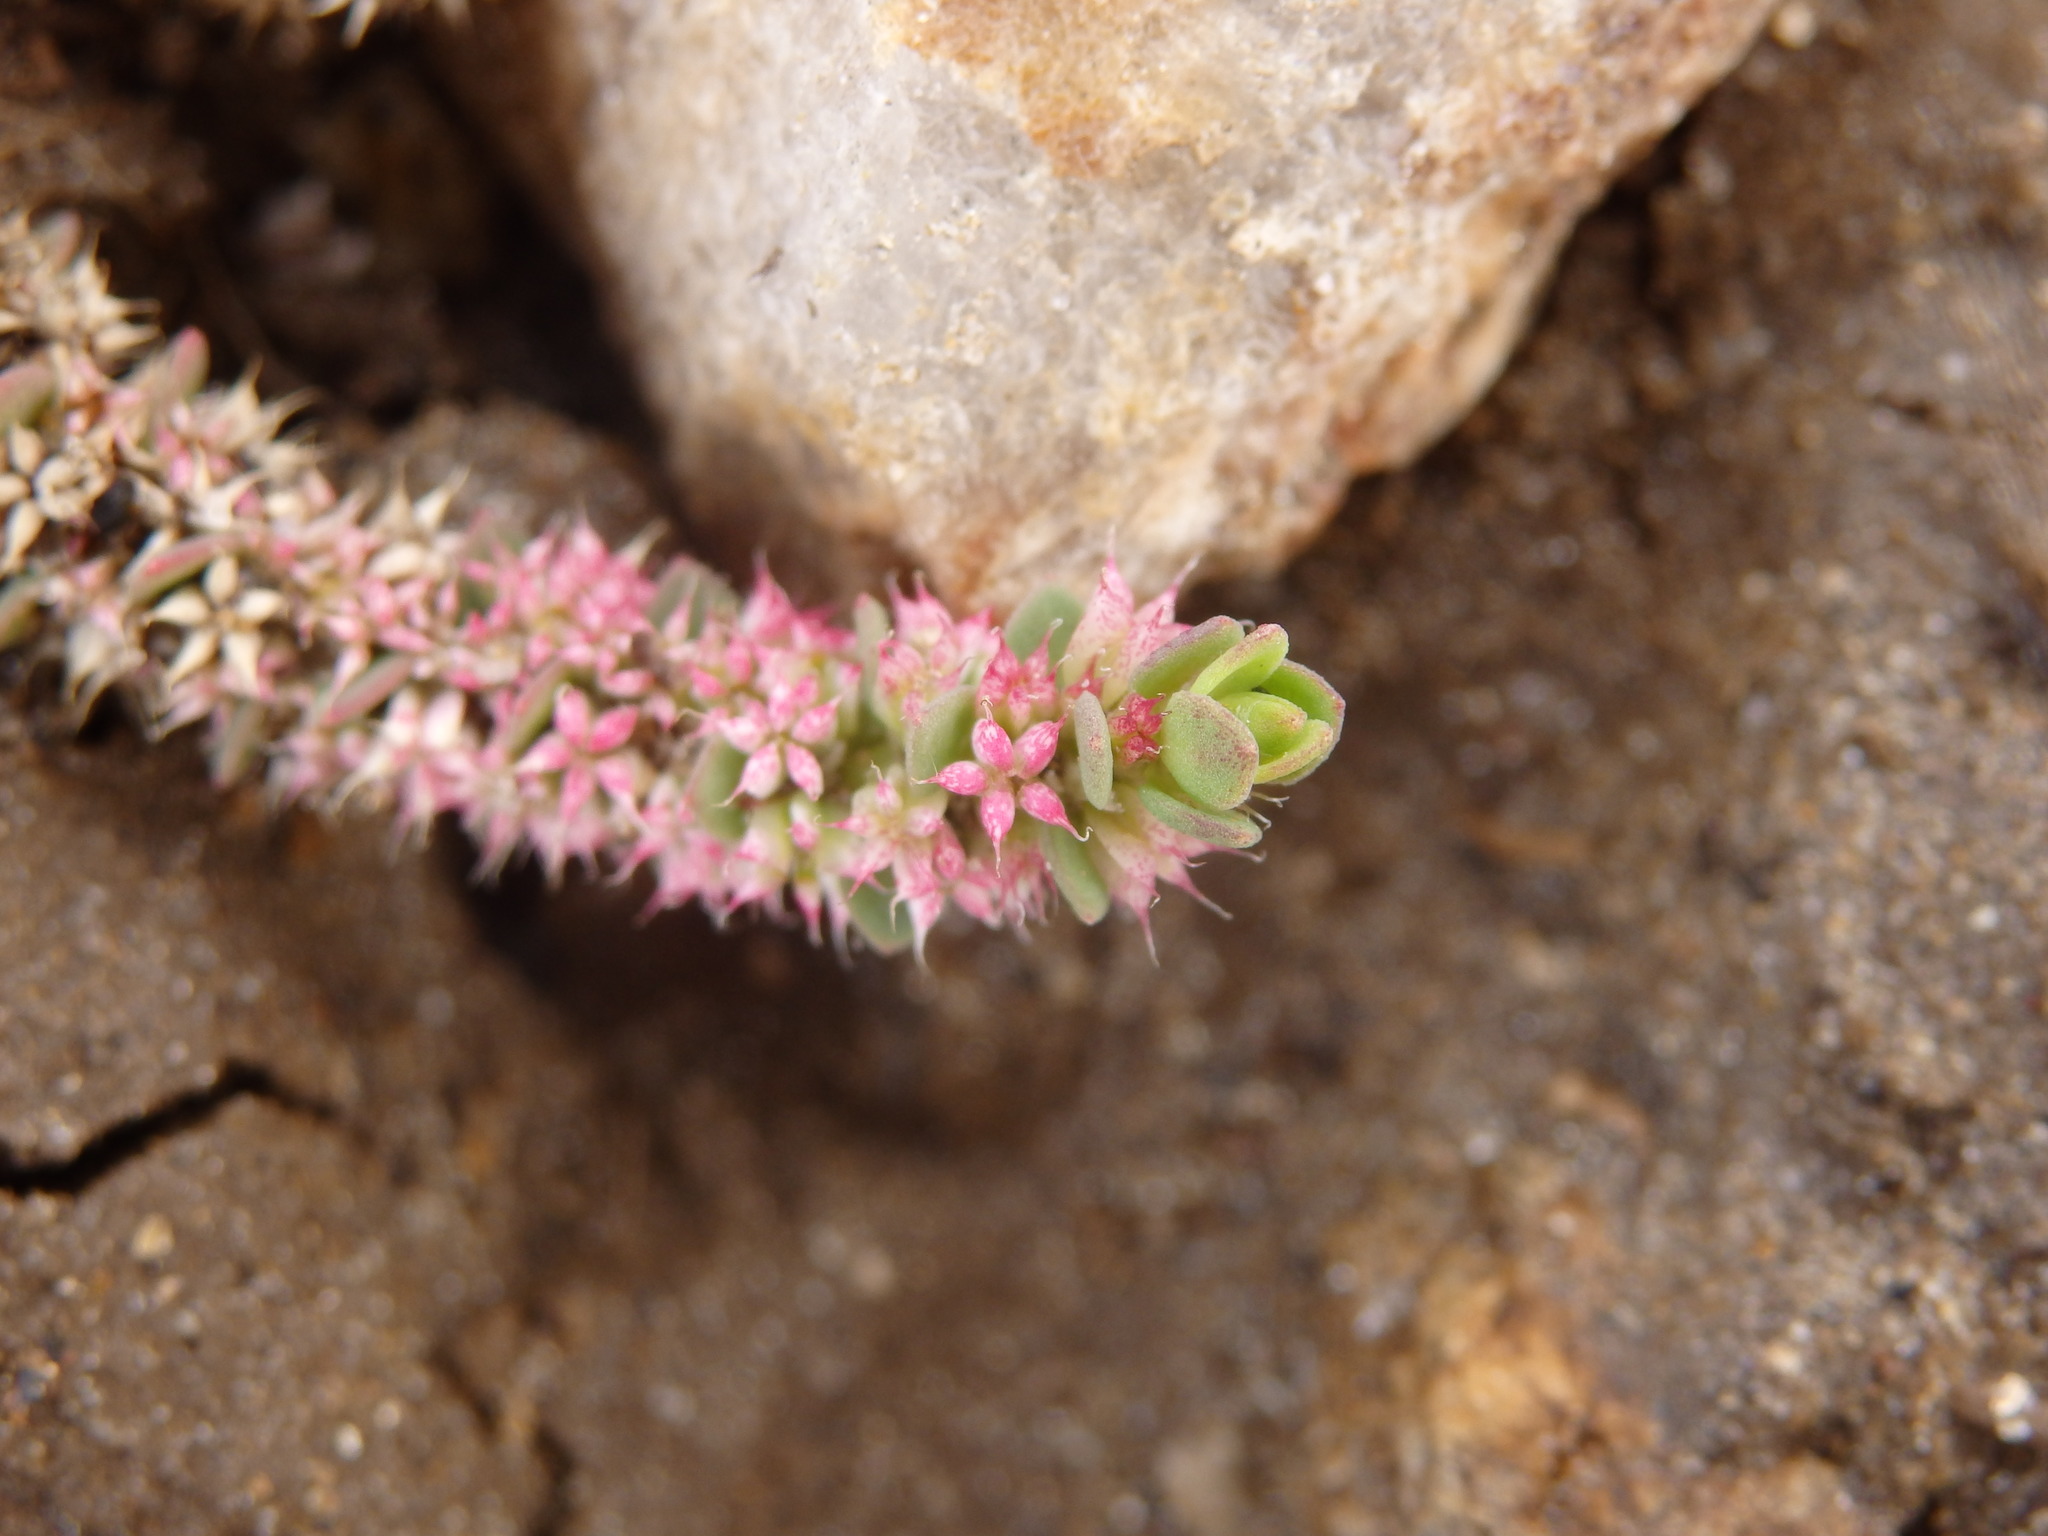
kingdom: Plantae
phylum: Tracheophyta
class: Magnoliopsida
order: Caryophyllales
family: Caryophyllaceae
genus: Illecebrum
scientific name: Illecebrum verticillatum
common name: Coral necklace
